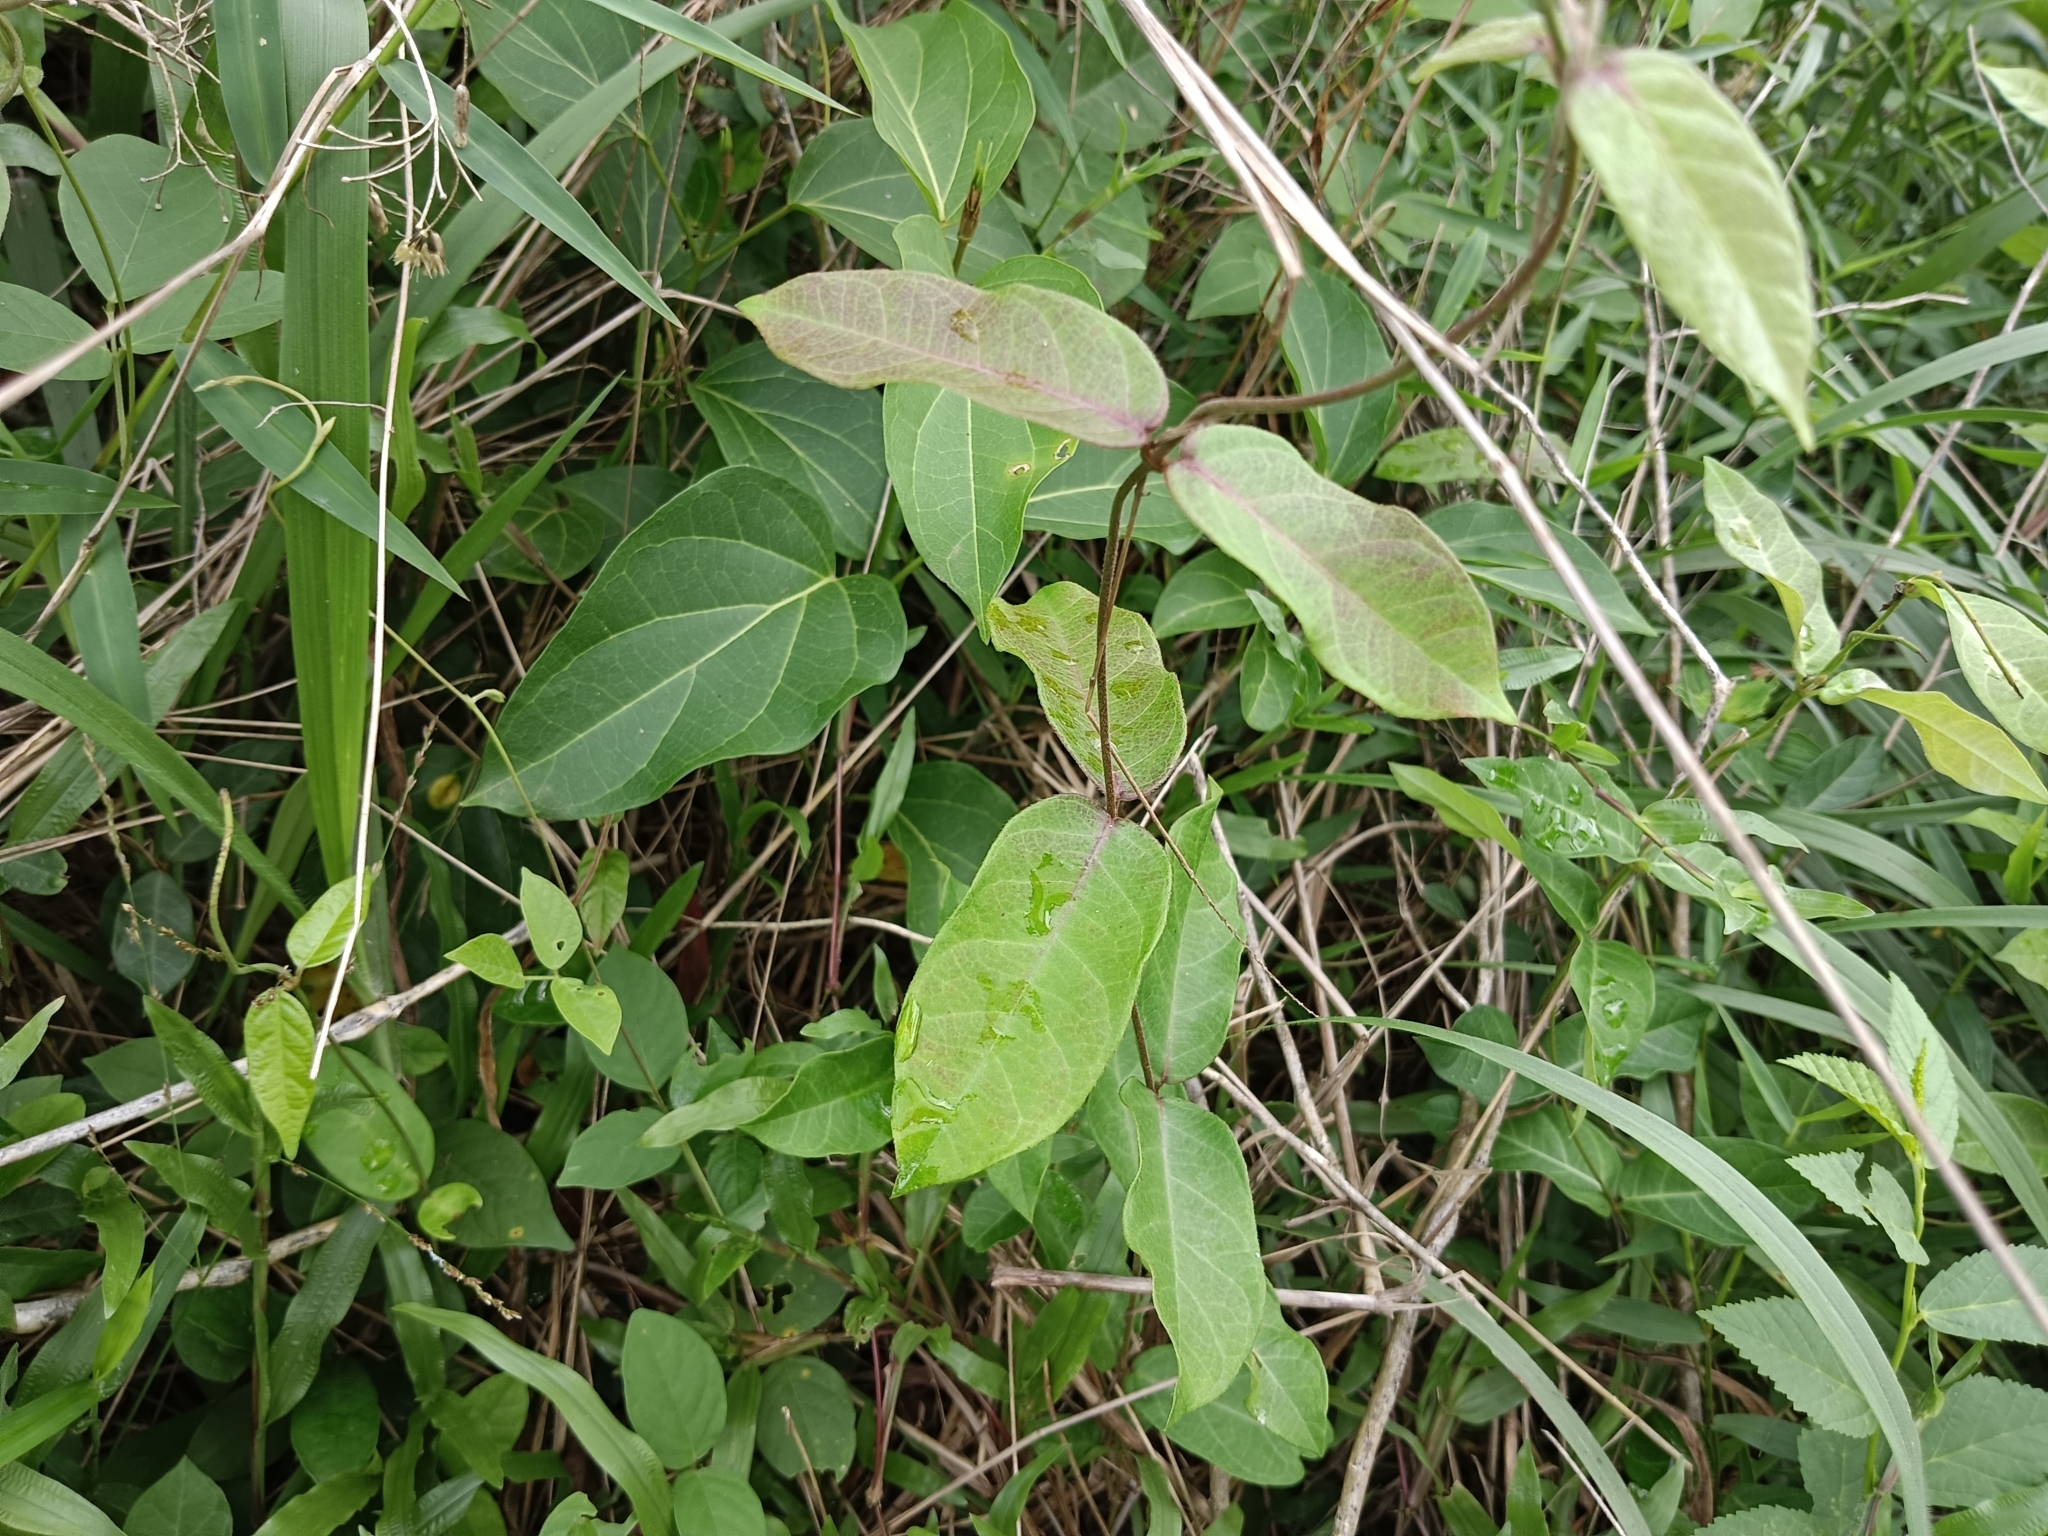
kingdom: Plantae
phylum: Tracheophyta
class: Magnoliopsida
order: Gentianales
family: Apocynaceae
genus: Ichnocarpus
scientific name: Ichnocarpus frutescens
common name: Ichnocarpus
